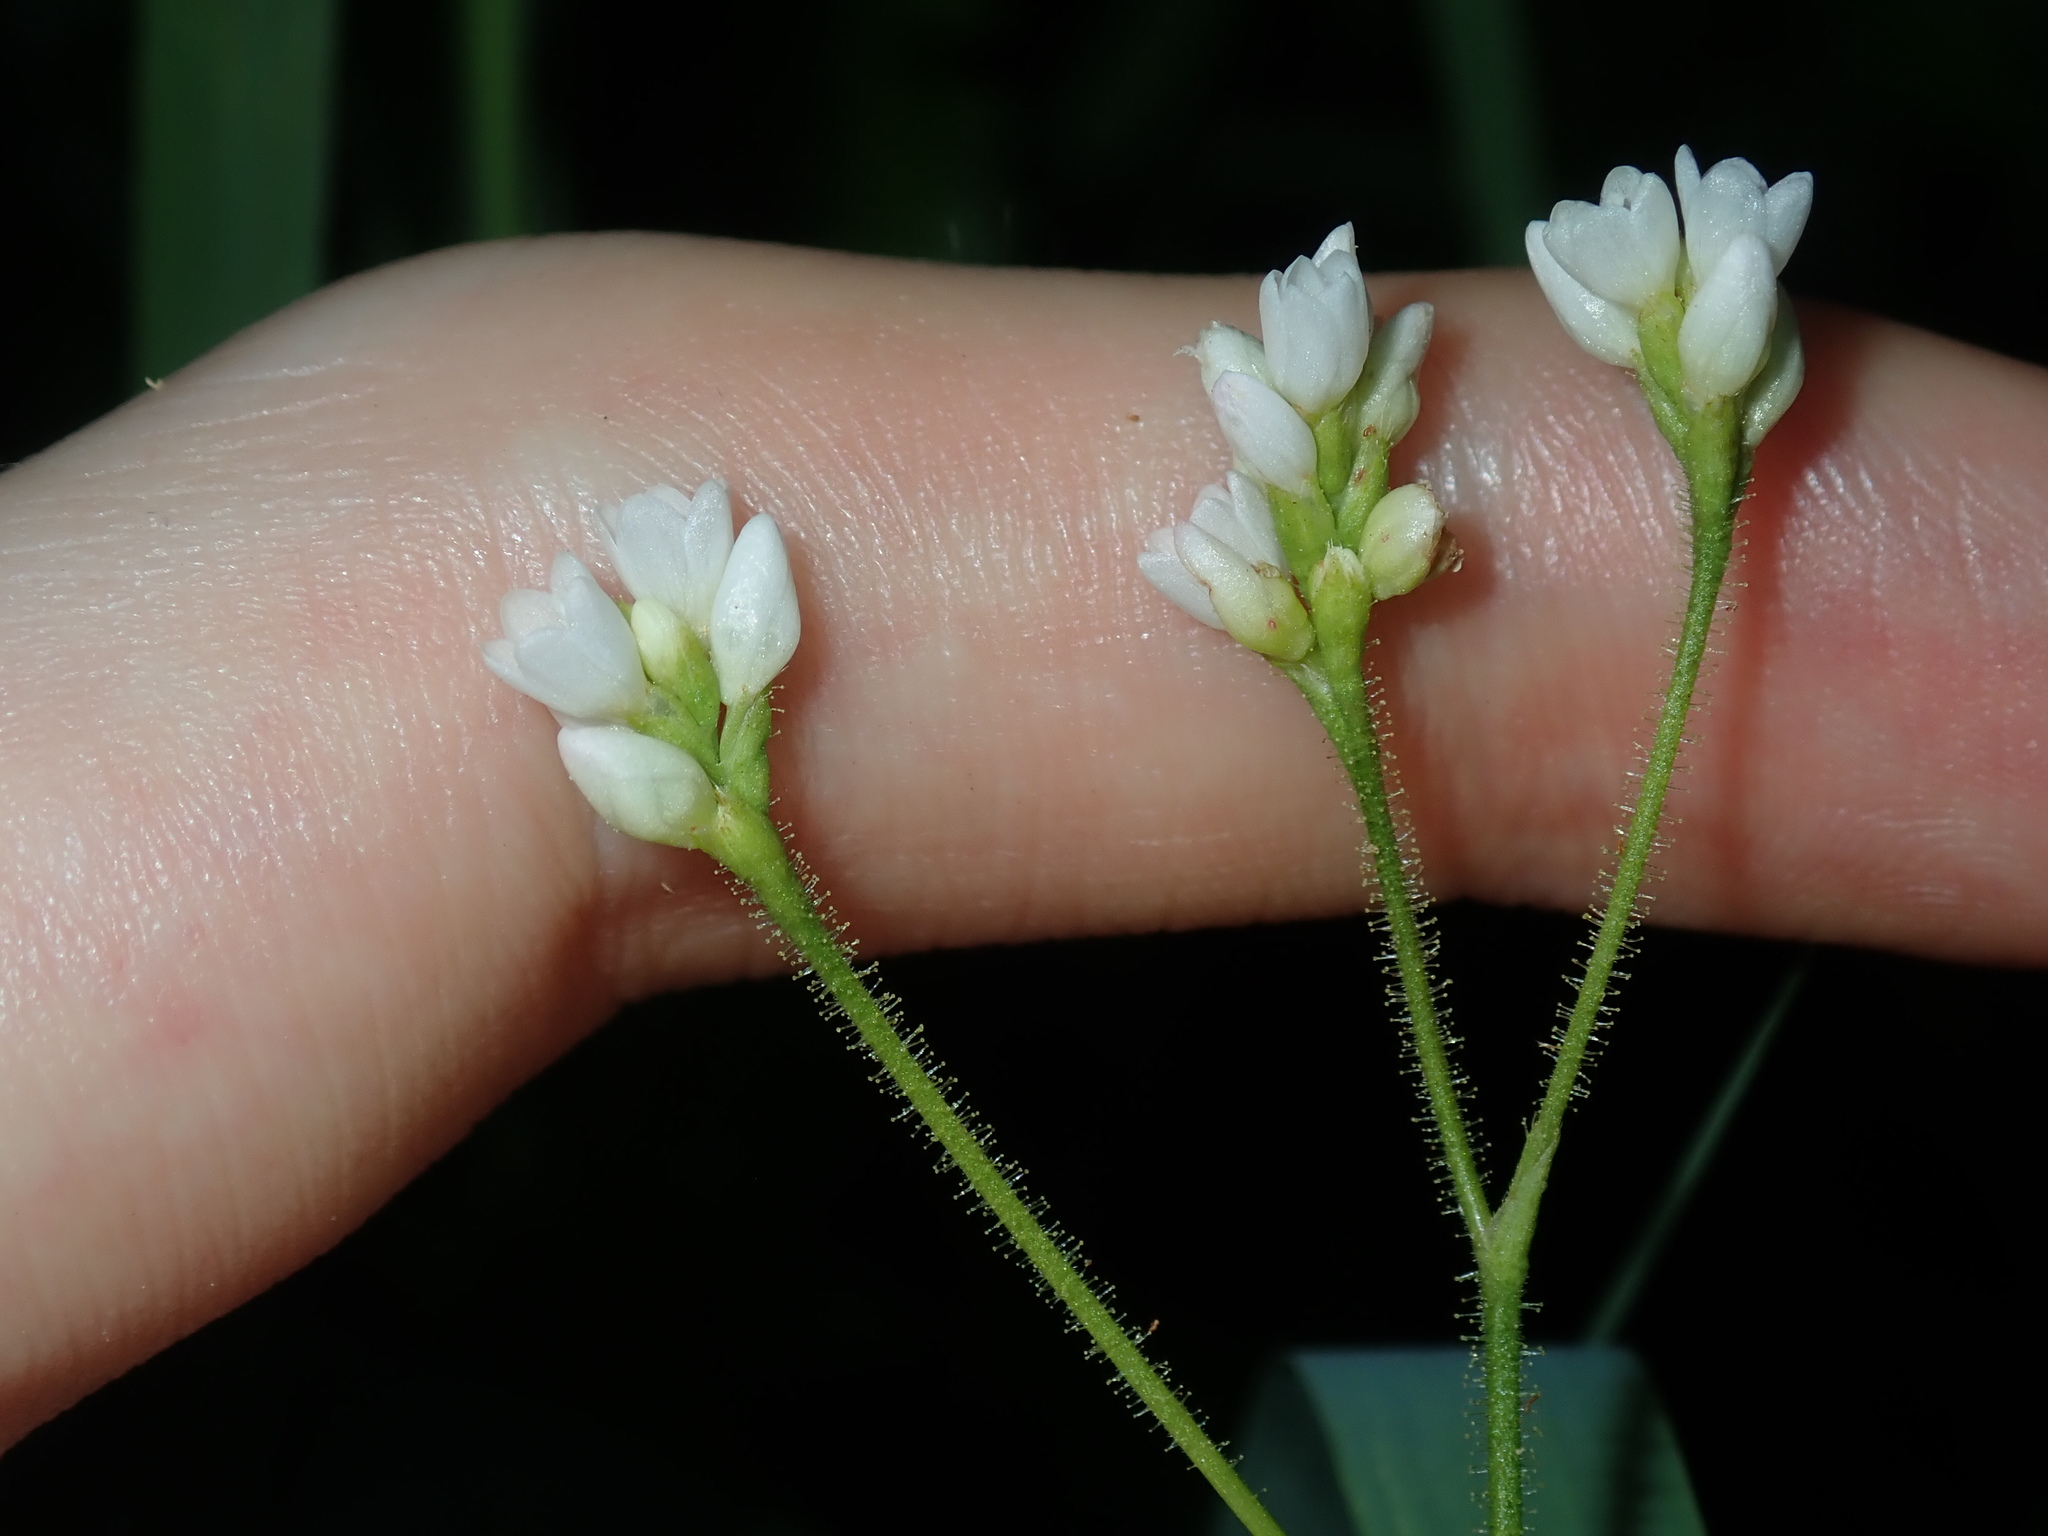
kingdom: Plantae
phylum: Tracheophyta
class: Magnoliopsida
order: Caryophyllales
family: Polygonaceae
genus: Persicaria
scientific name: Persicaria strigosa
